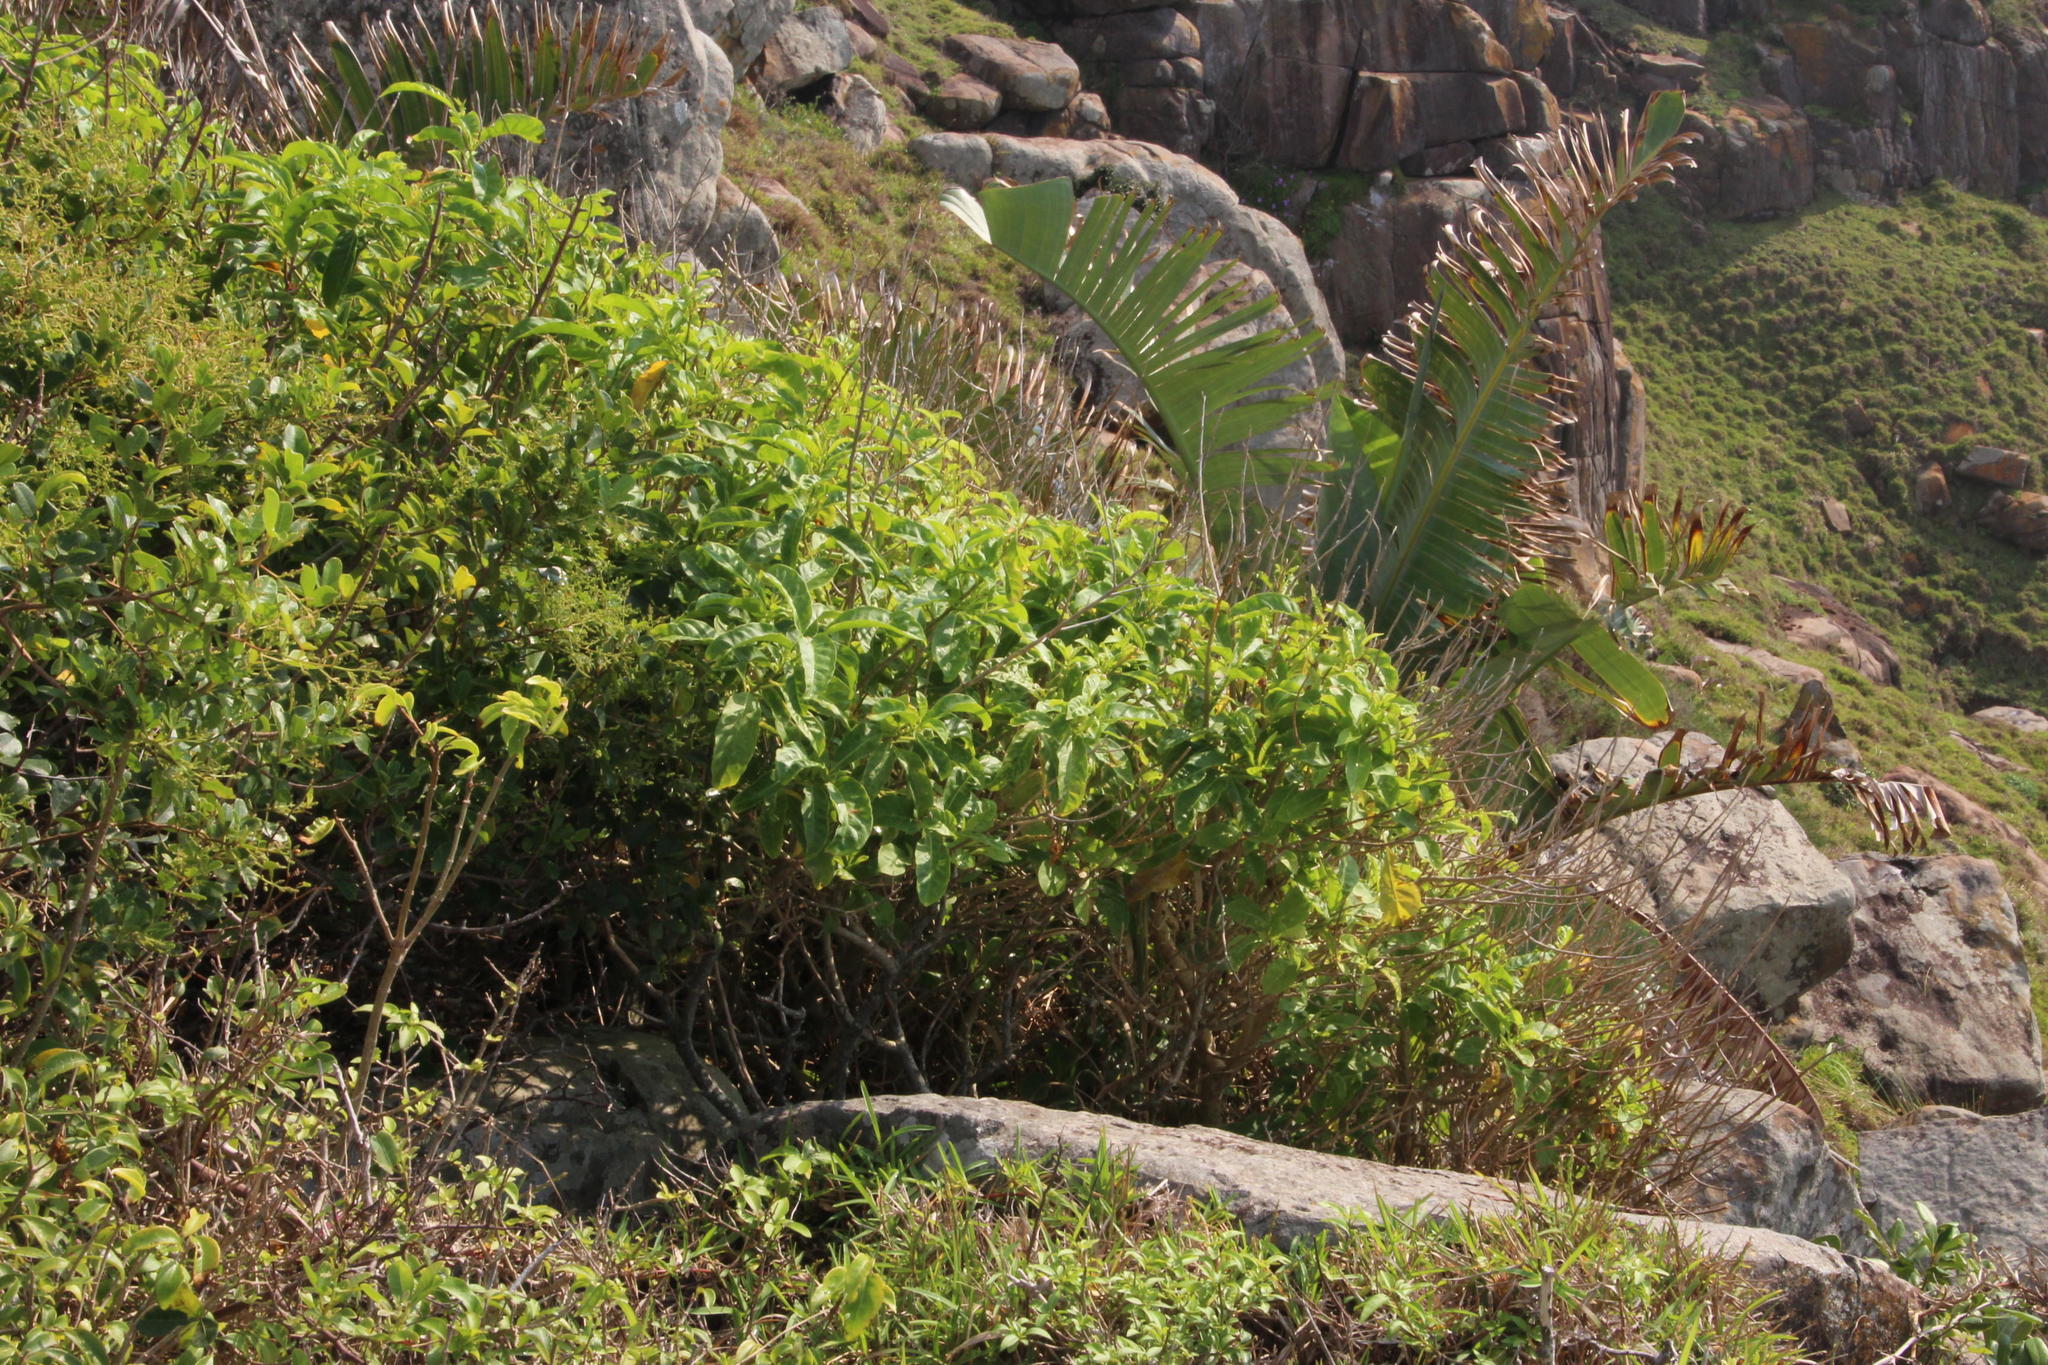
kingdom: Plantae
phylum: Tracheophyta
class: Magnoliopsida
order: Sapindales
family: Anacardiaceae
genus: Searsia
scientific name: Searsia carnosula
